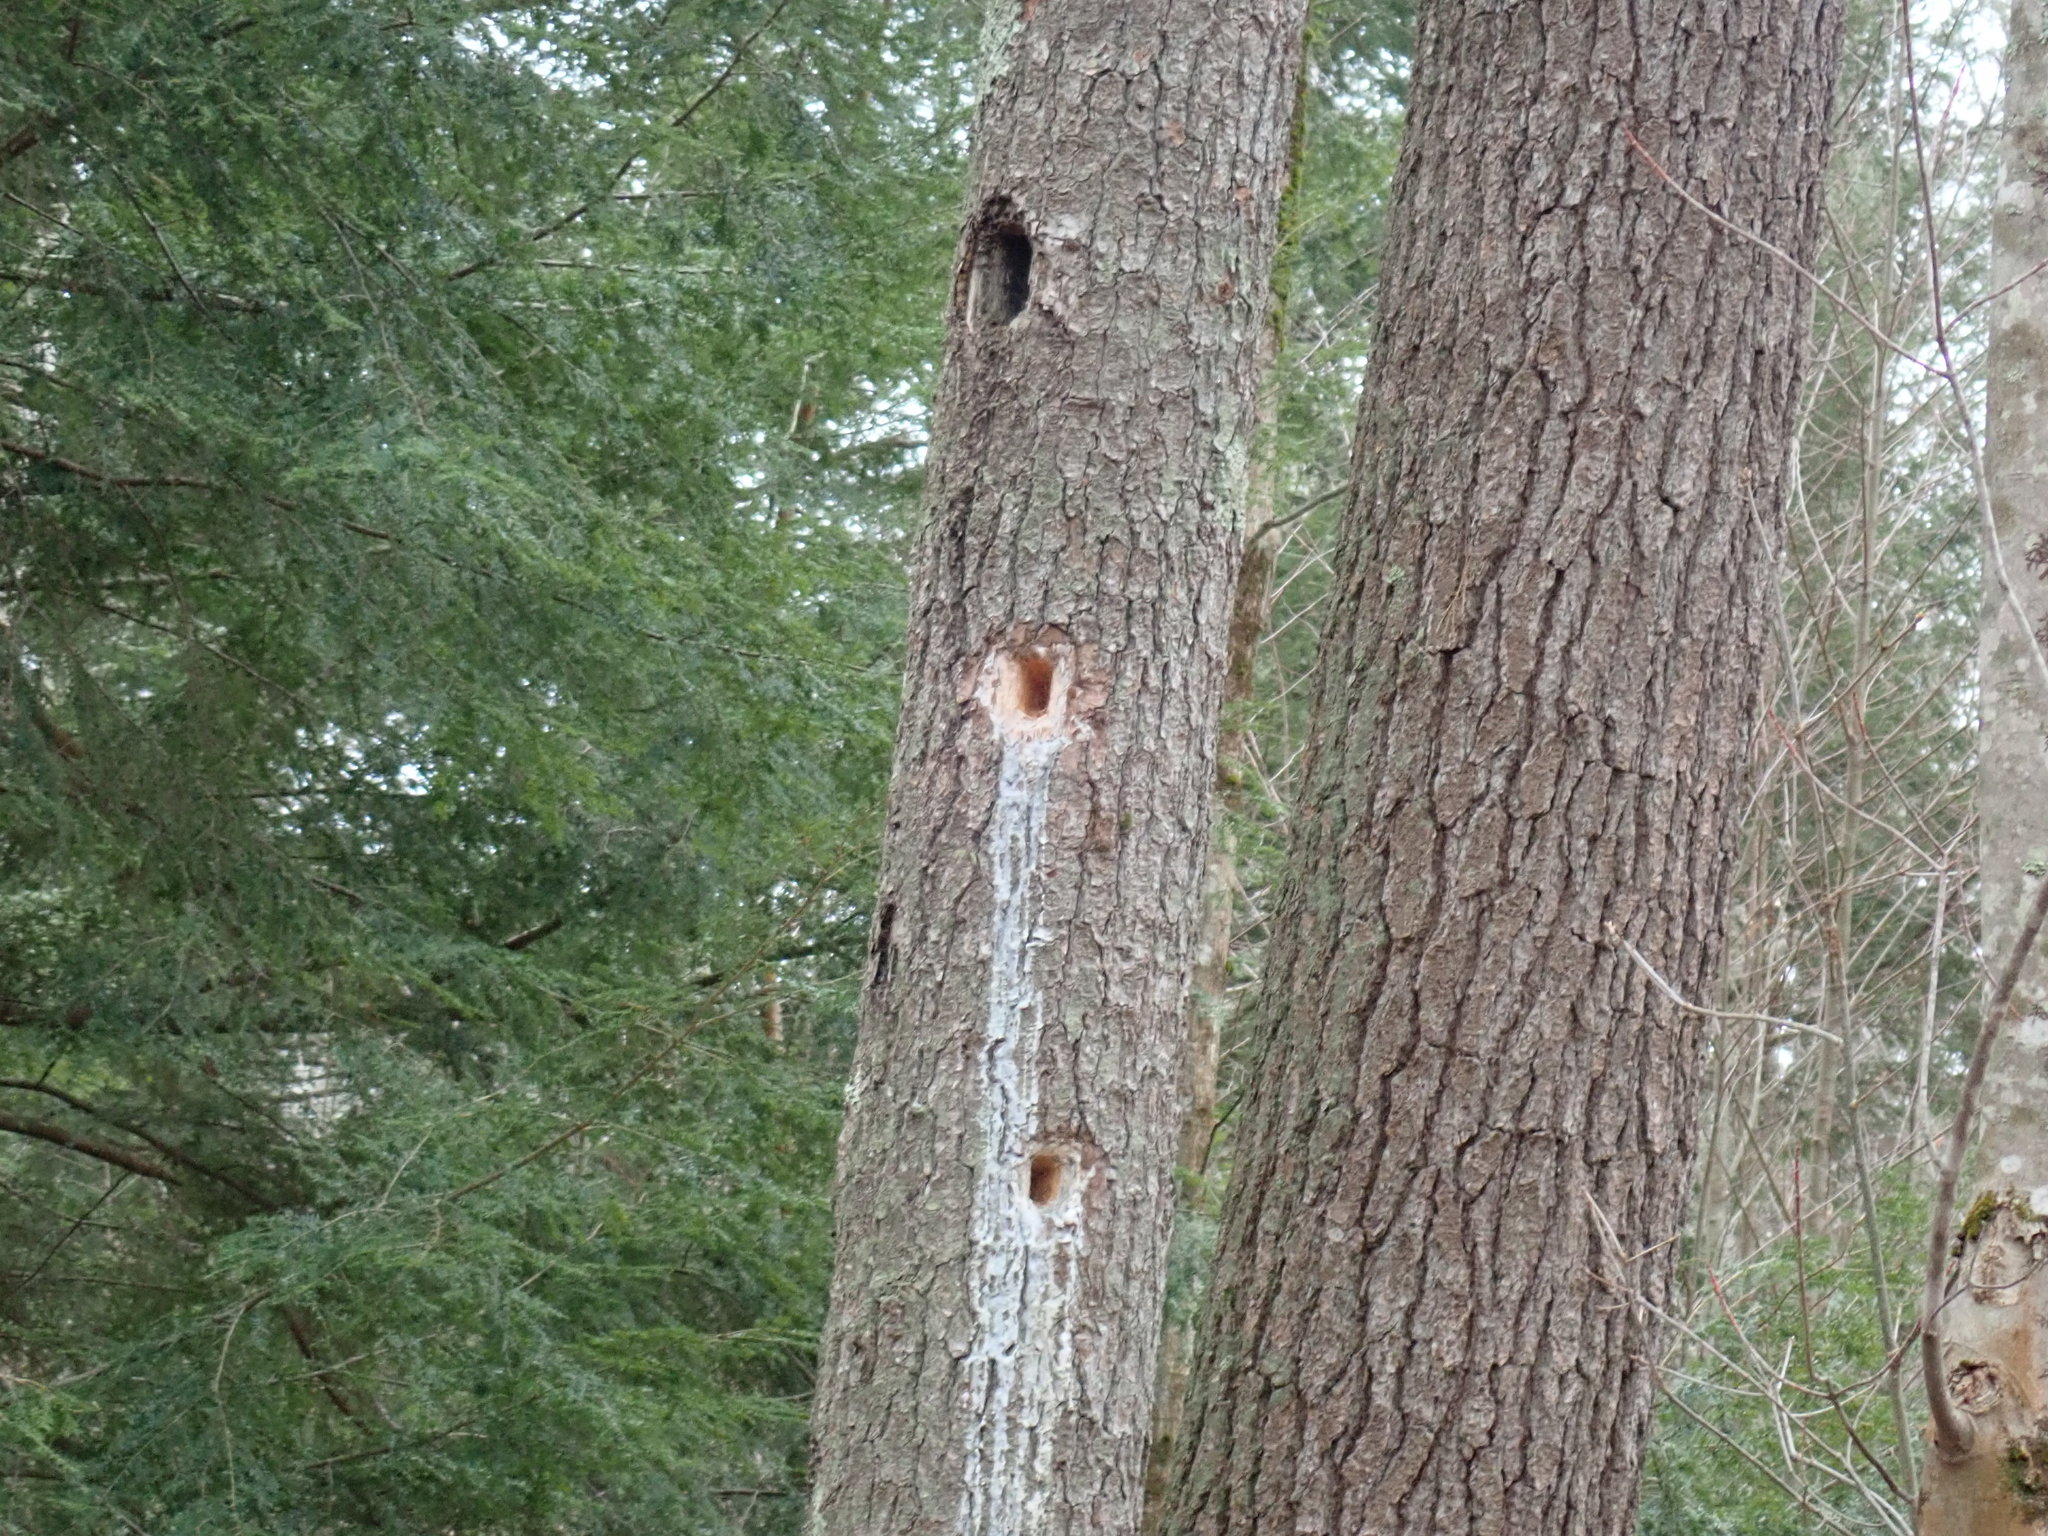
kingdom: Animalia
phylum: Chordata
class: Aves
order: Piciformes
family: Picidae
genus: Dryocopus
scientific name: Dryocopus pileatus
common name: Pileated woodpecker
